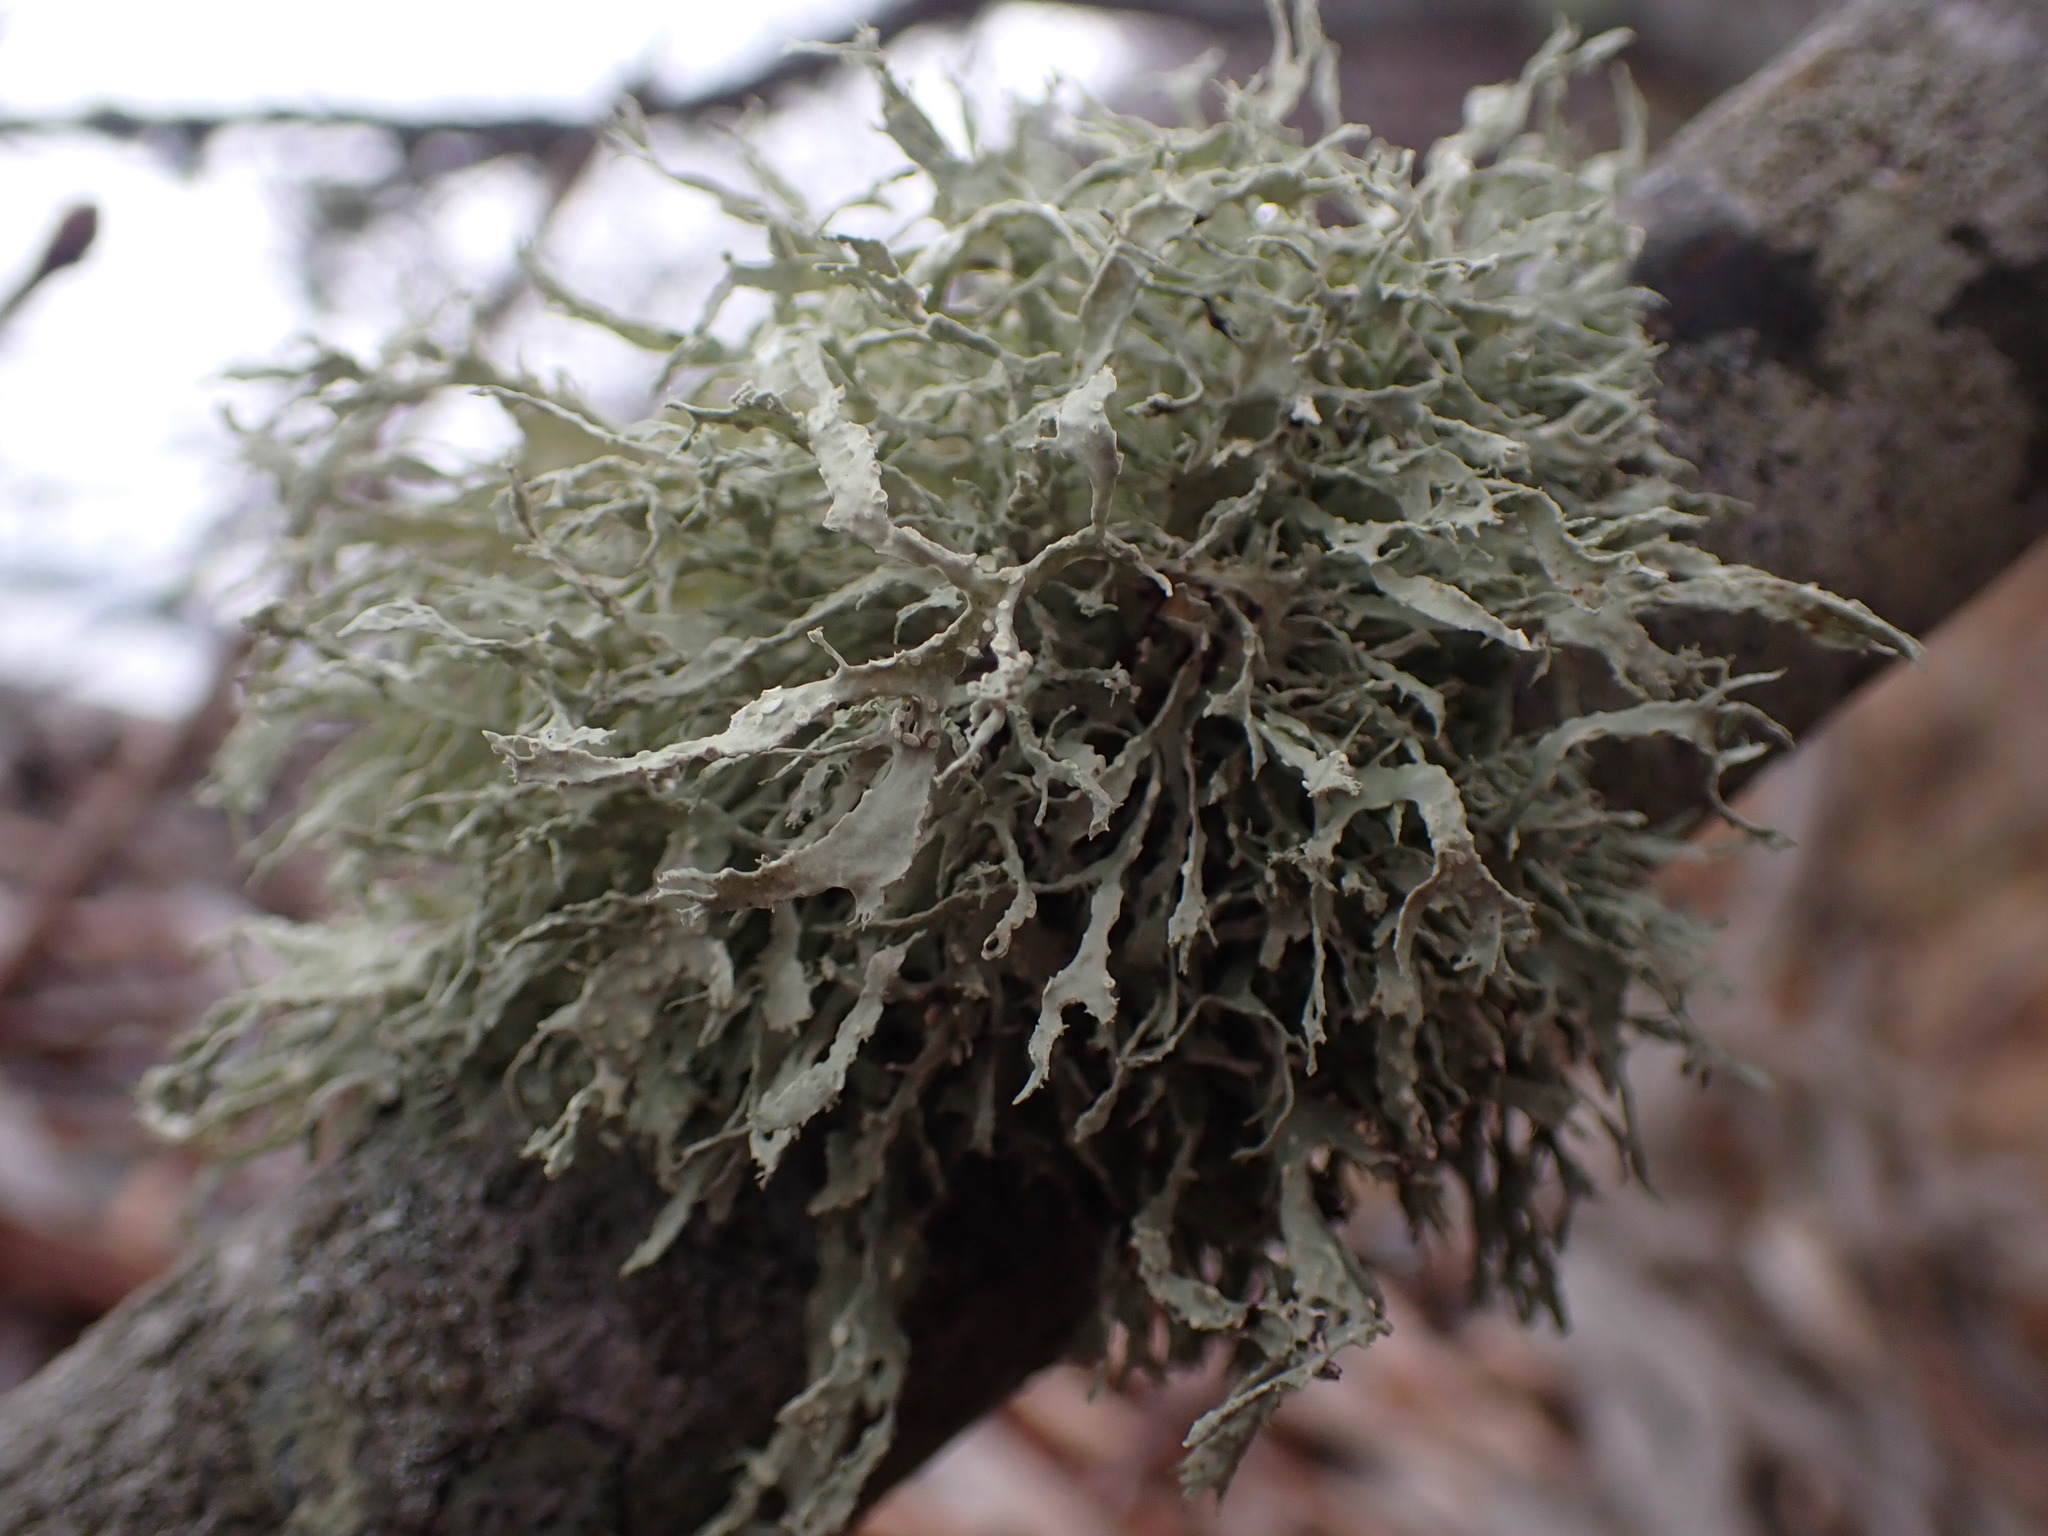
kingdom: Fungi
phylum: Ascomycota
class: Lecanoromycetes
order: Lecanorales
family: Ramalinaceae
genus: Ramalina
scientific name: Ramalina farinacea
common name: Farinose cartilage lichen
